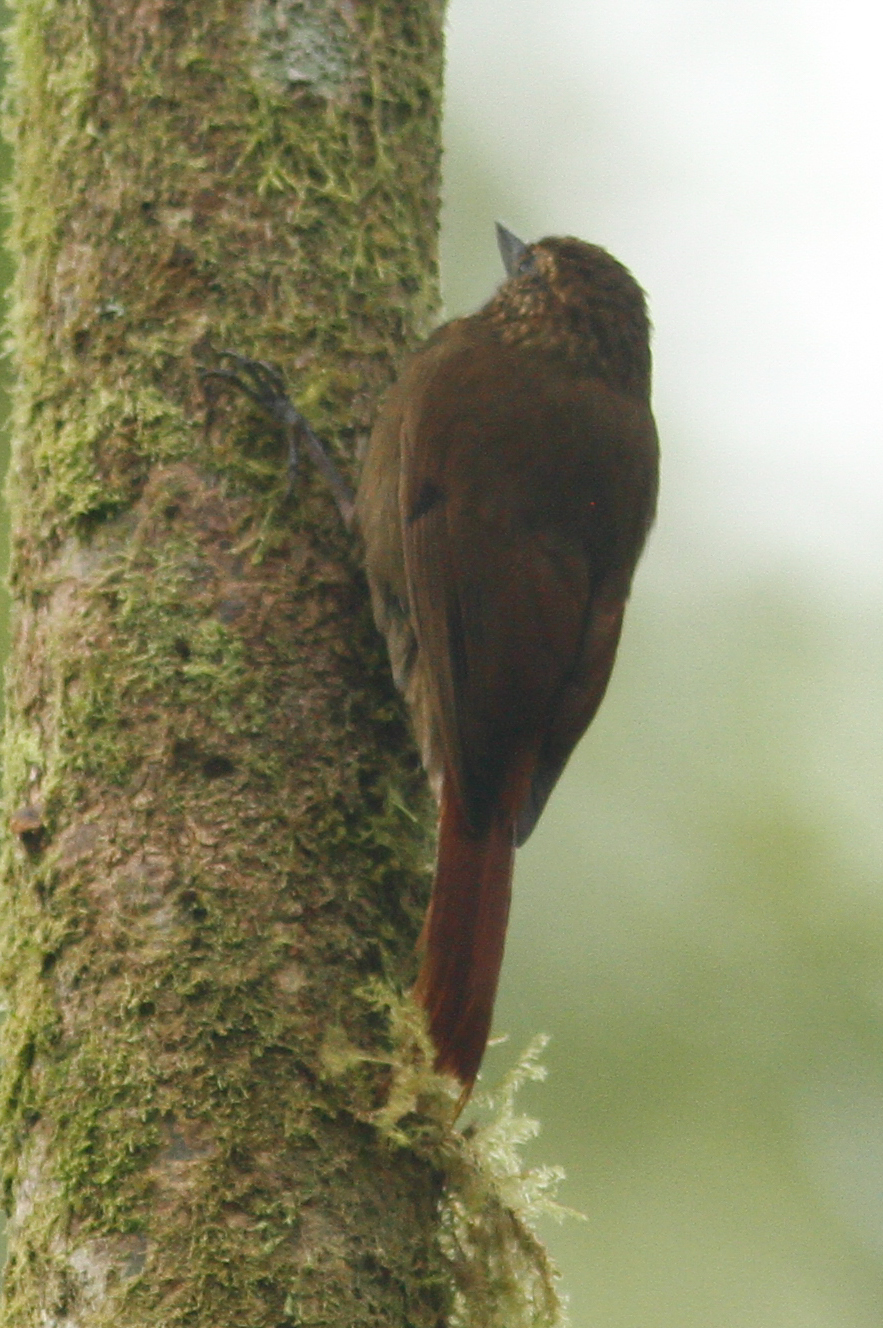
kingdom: Animalia
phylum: Chordata
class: Aves
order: Passeriformes
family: Furnariidae
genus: Glyphorynchus
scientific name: Glyphorynchus spirurus
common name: Wedge-billed woodcreeper
